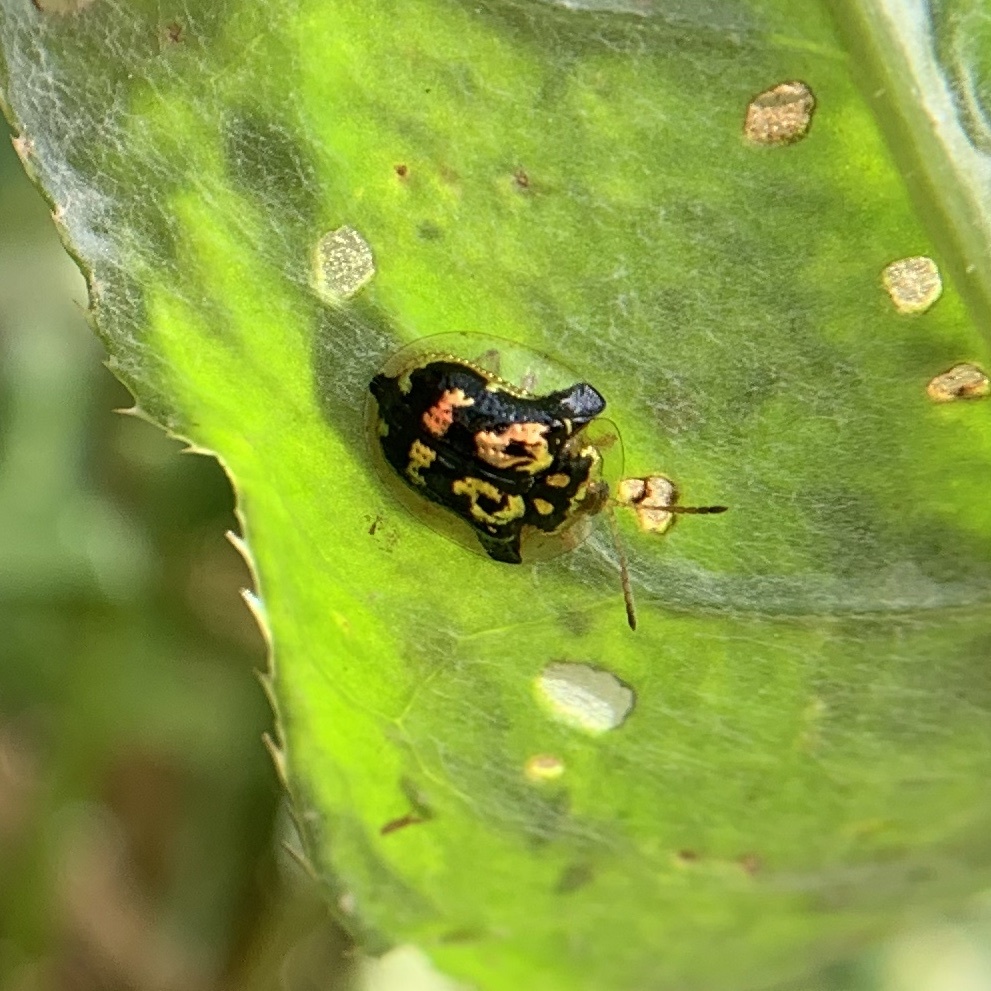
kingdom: Animalia
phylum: Arthropoda
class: Insecta
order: Coleoptera
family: Chrysomelidae
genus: Deloyala
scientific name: Deloyala guttata
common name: Mottled tortoise beetle
